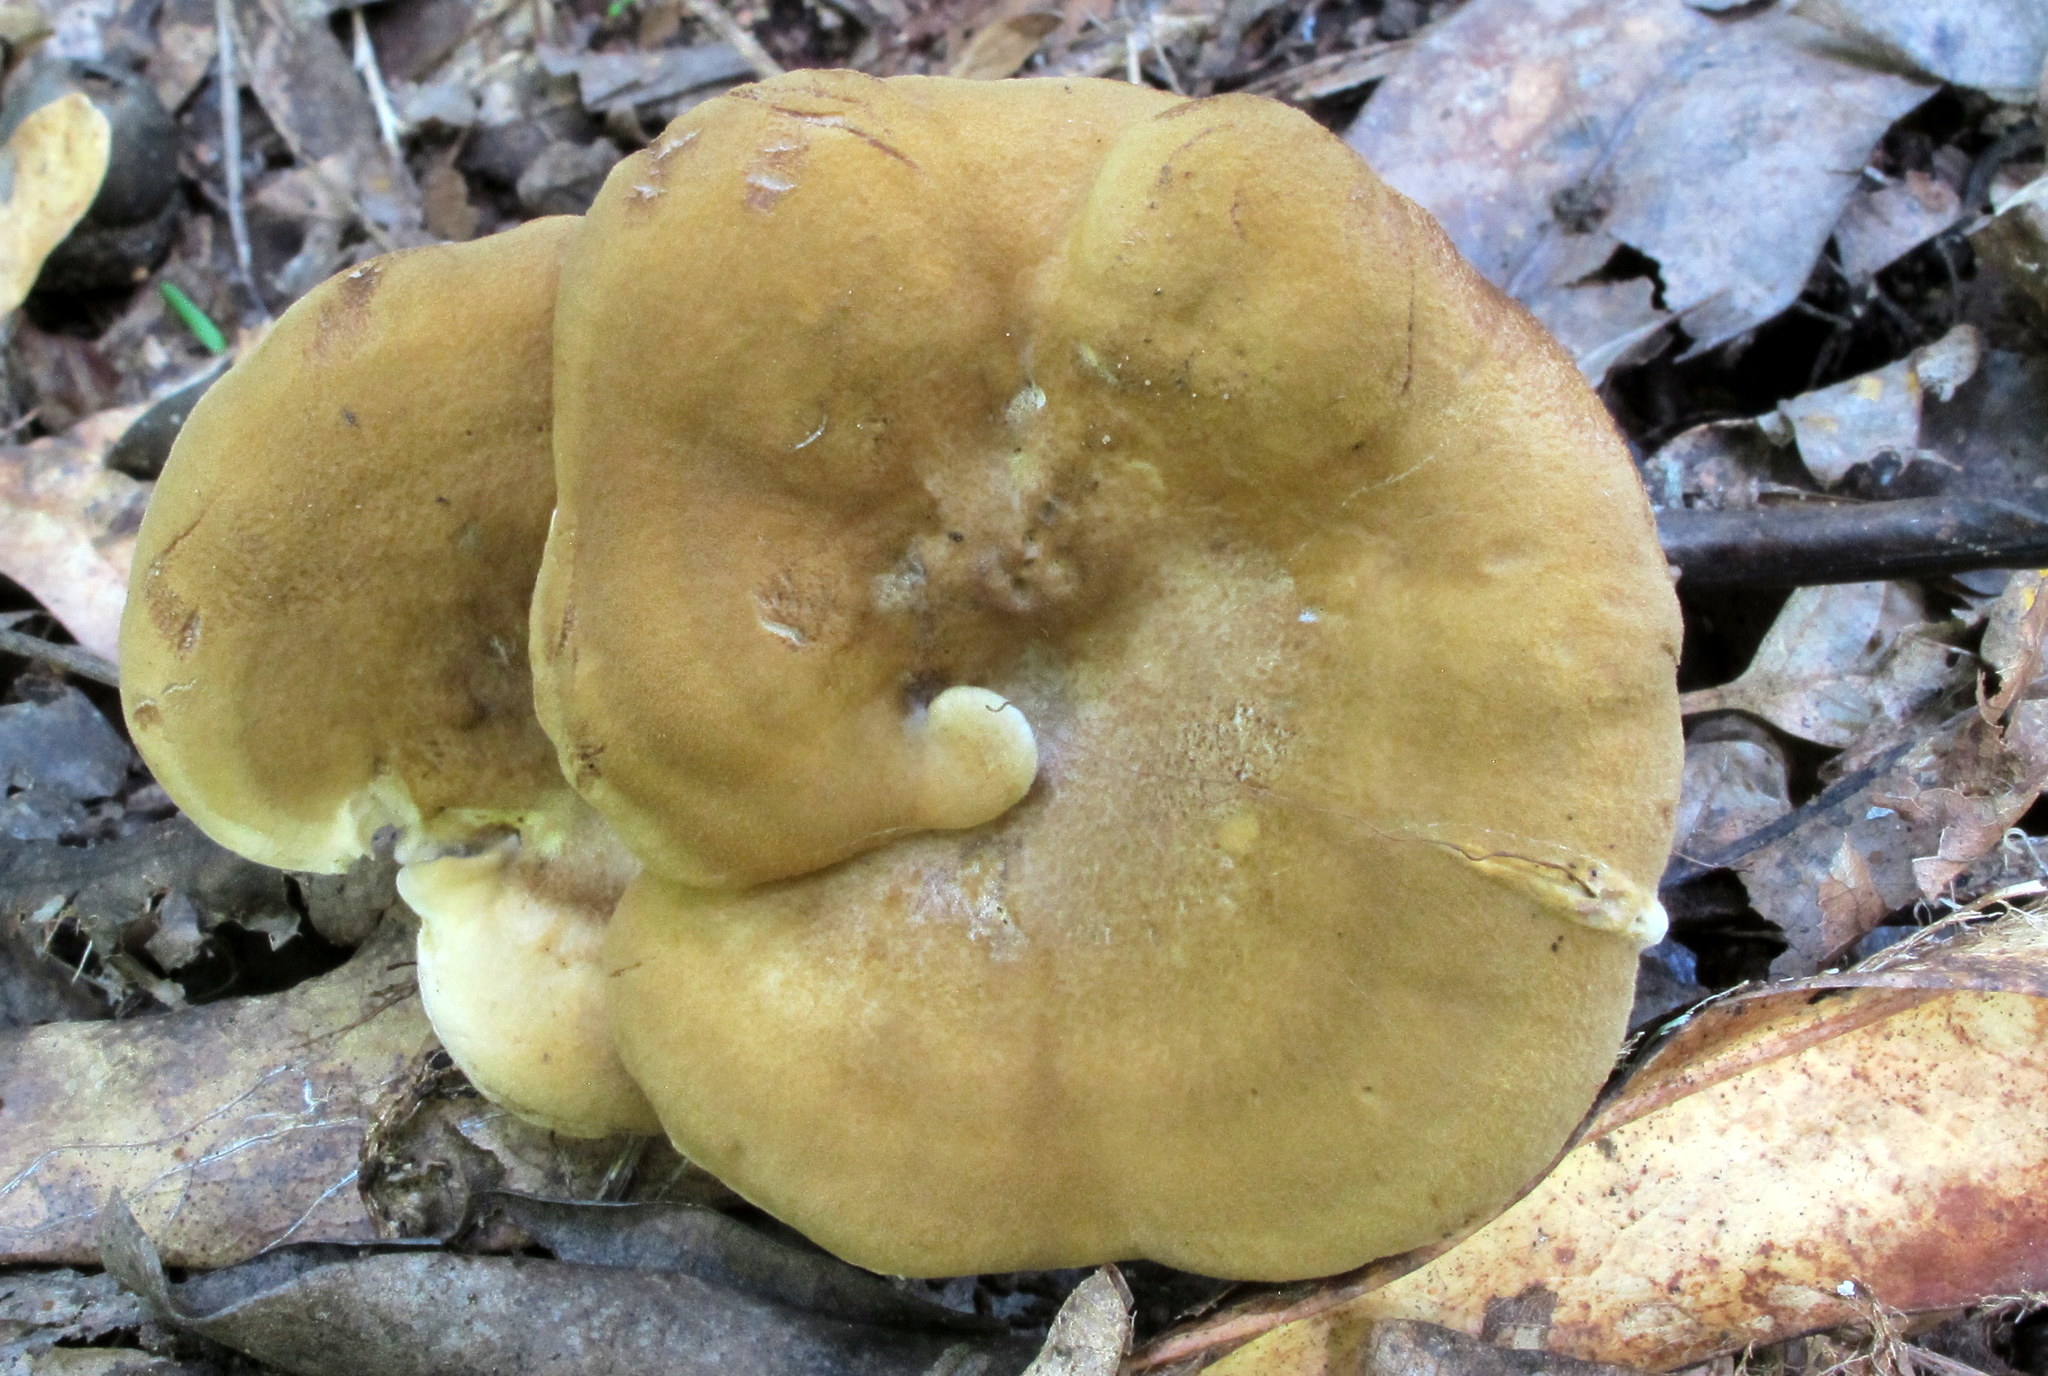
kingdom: Fungi
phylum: Basidiomycota
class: Agaricomycetes
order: Russulales
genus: Laeticutis
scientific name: Laeticutis cristata
